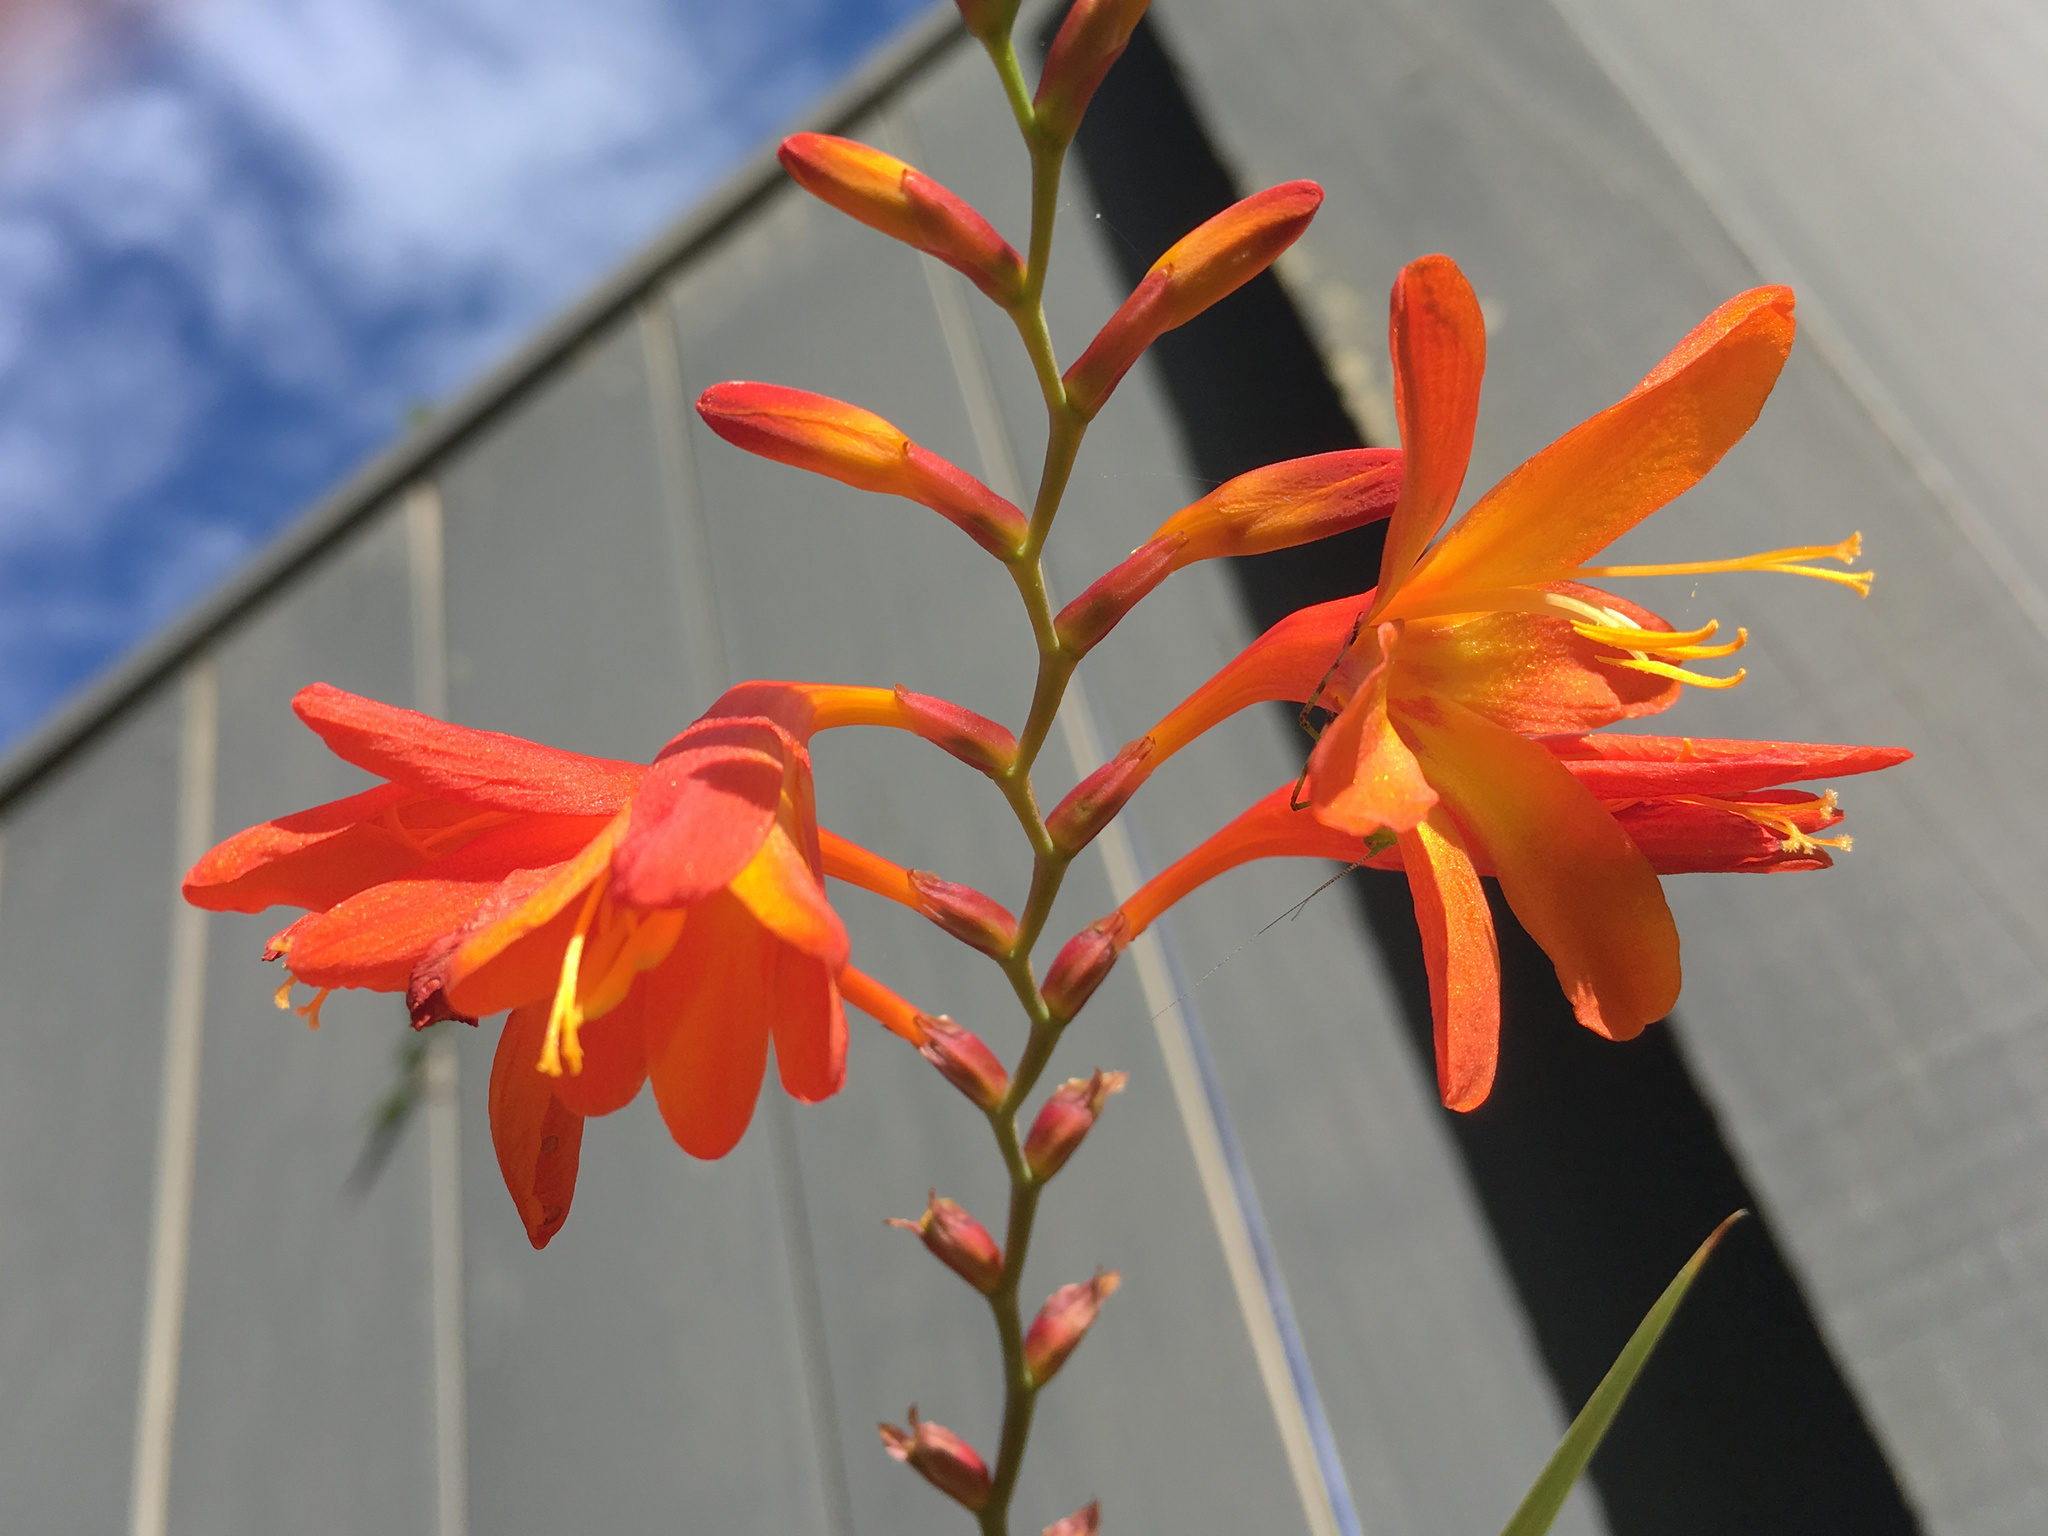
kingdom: Plantae
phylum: Tracheophyta
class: Liliopsida
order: Asparagales
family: Iridaceae
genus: Crocosmia
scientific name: Crocosmia crocosmiiflora
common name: Montbretia
